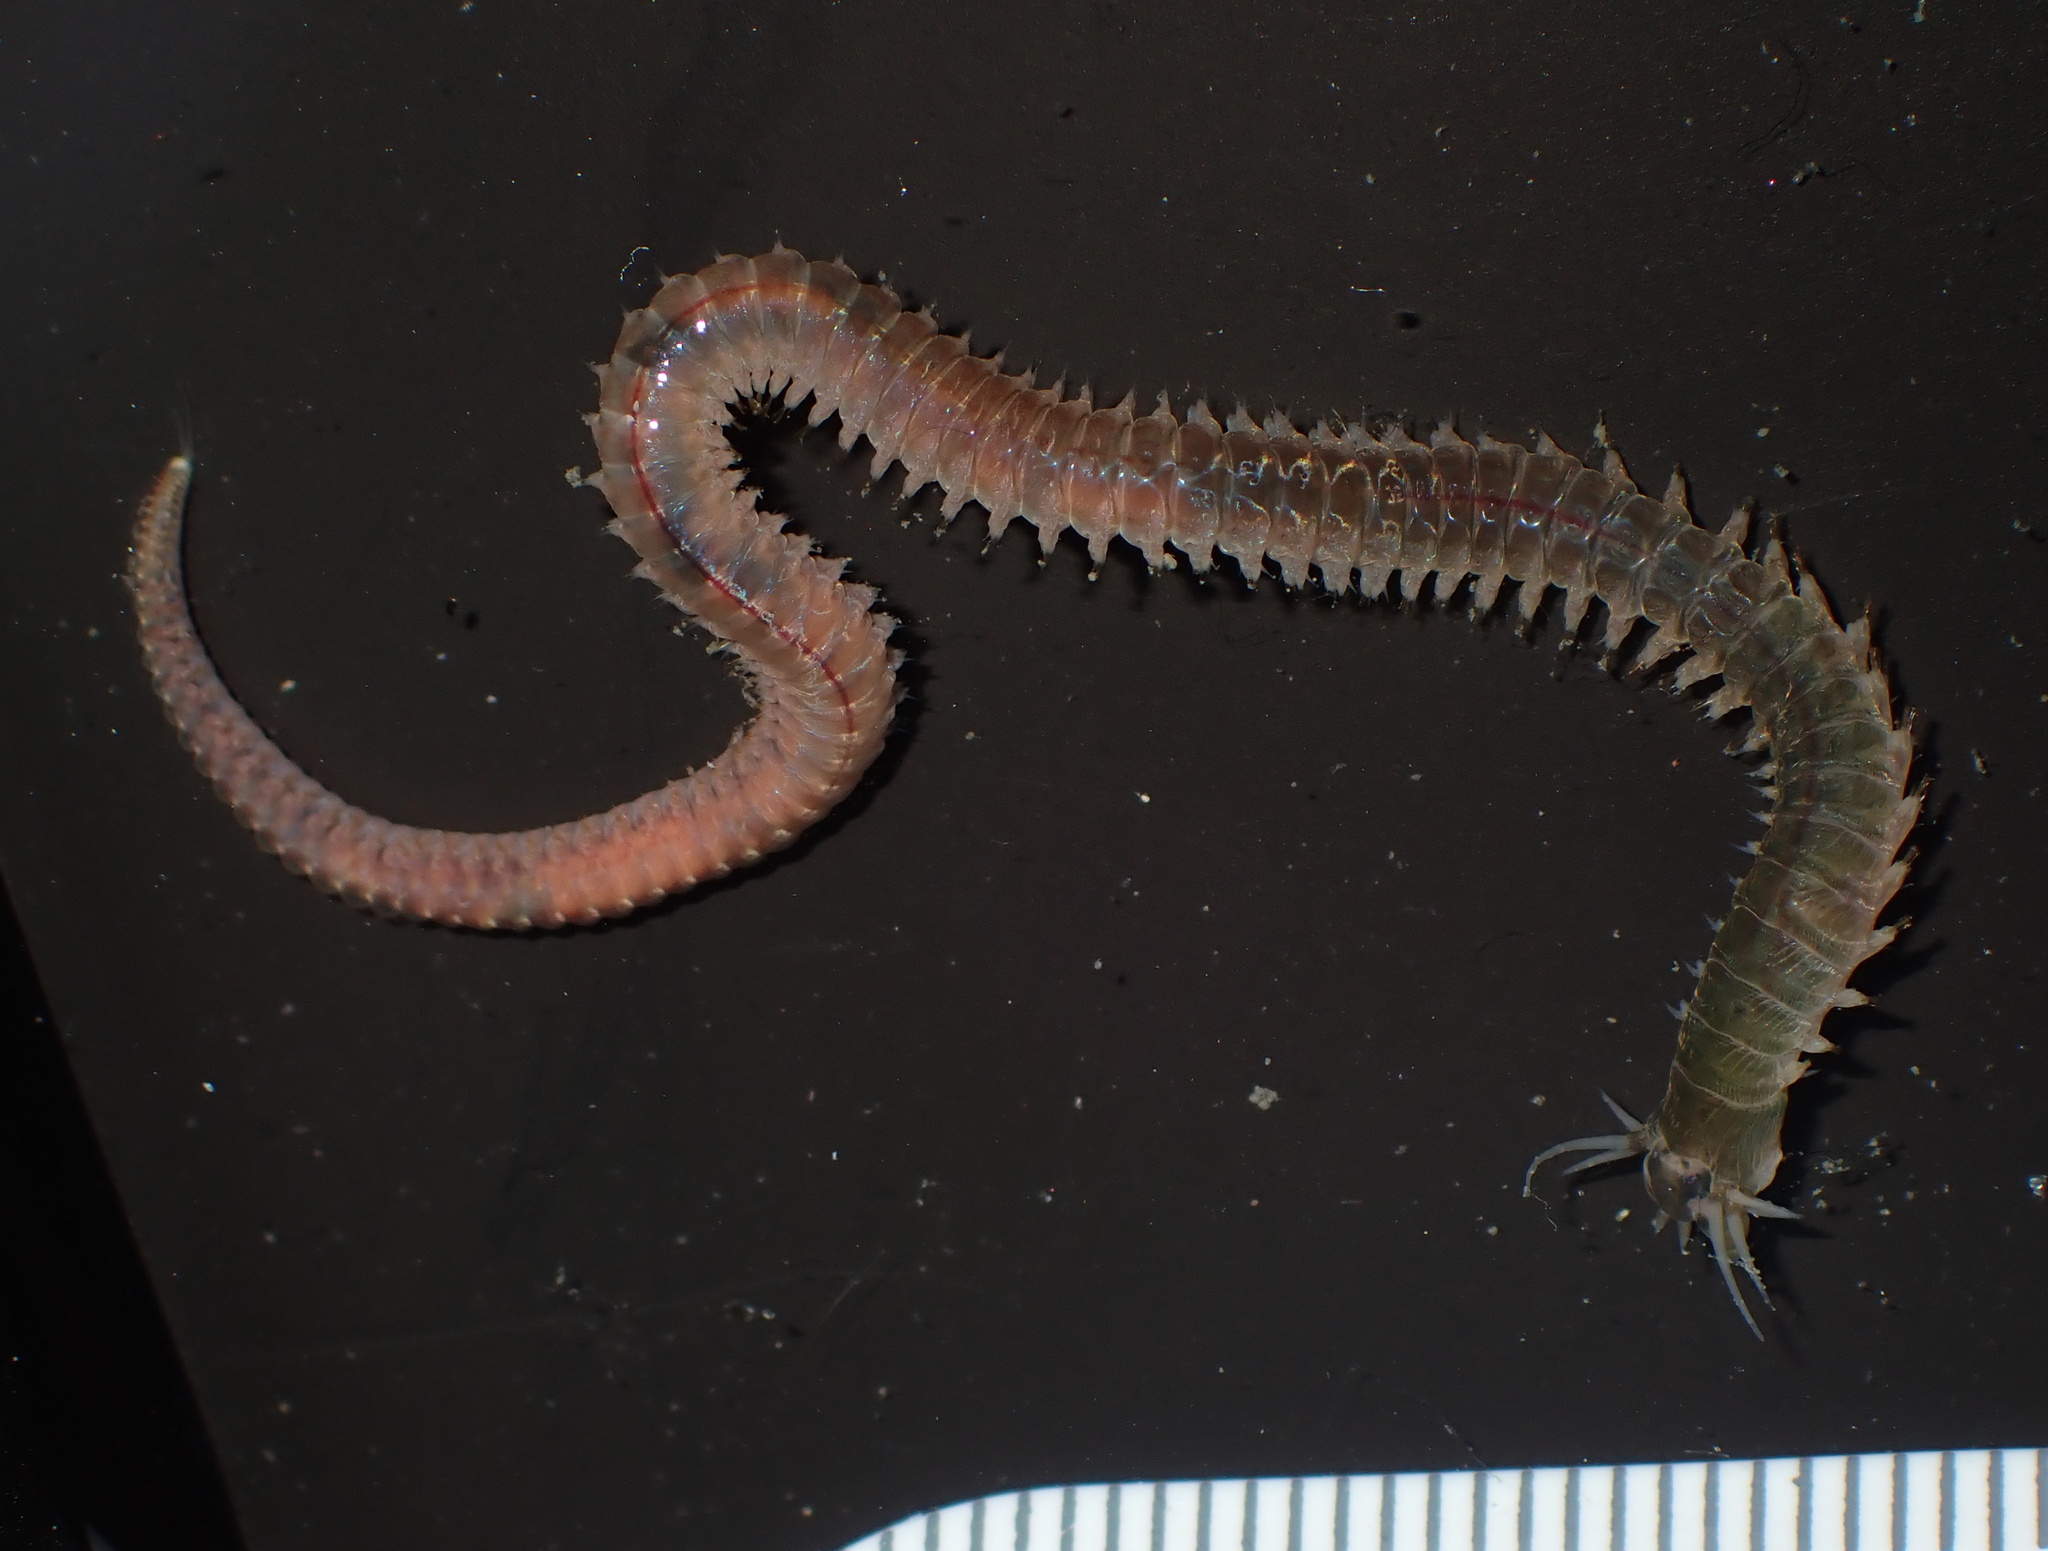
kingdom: Animalia
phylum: Annelida
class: Polychaeta
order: Phyllodocida
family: Nereididae
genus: Perinereis
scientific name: Perinereis
